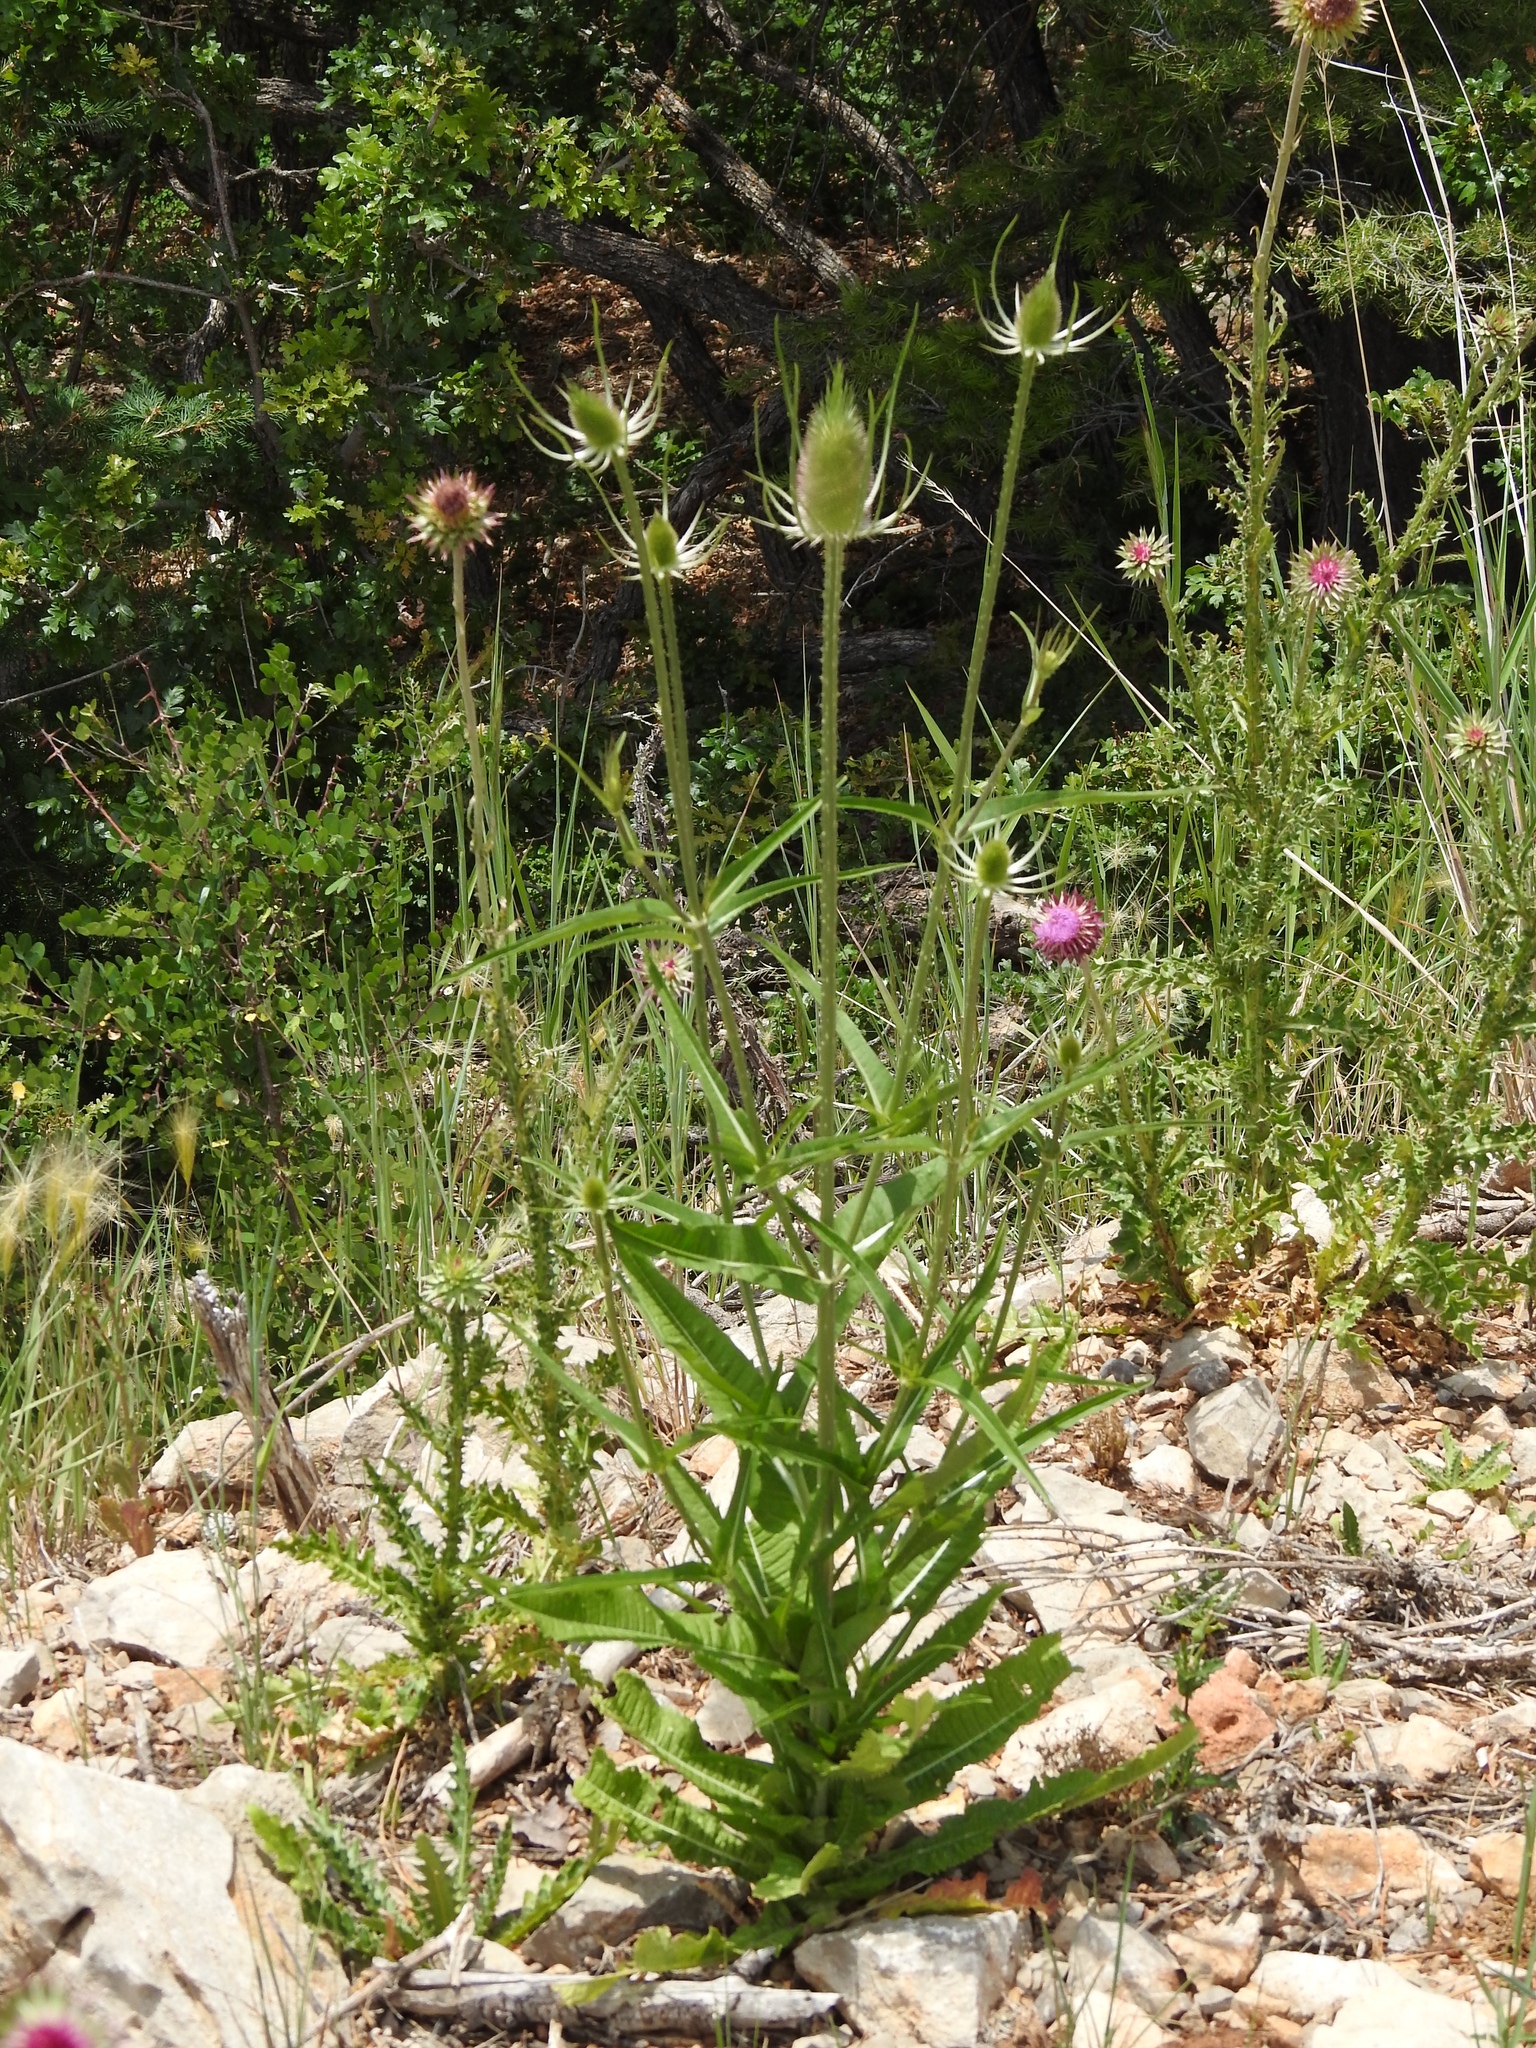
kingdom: Plantae
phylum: Tracheophyta
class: Magnoliopsida
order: Dipsacales
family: Caprifoliaceae
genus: Dipsacus
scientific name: Dipsacus fullonum
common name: Teasel
